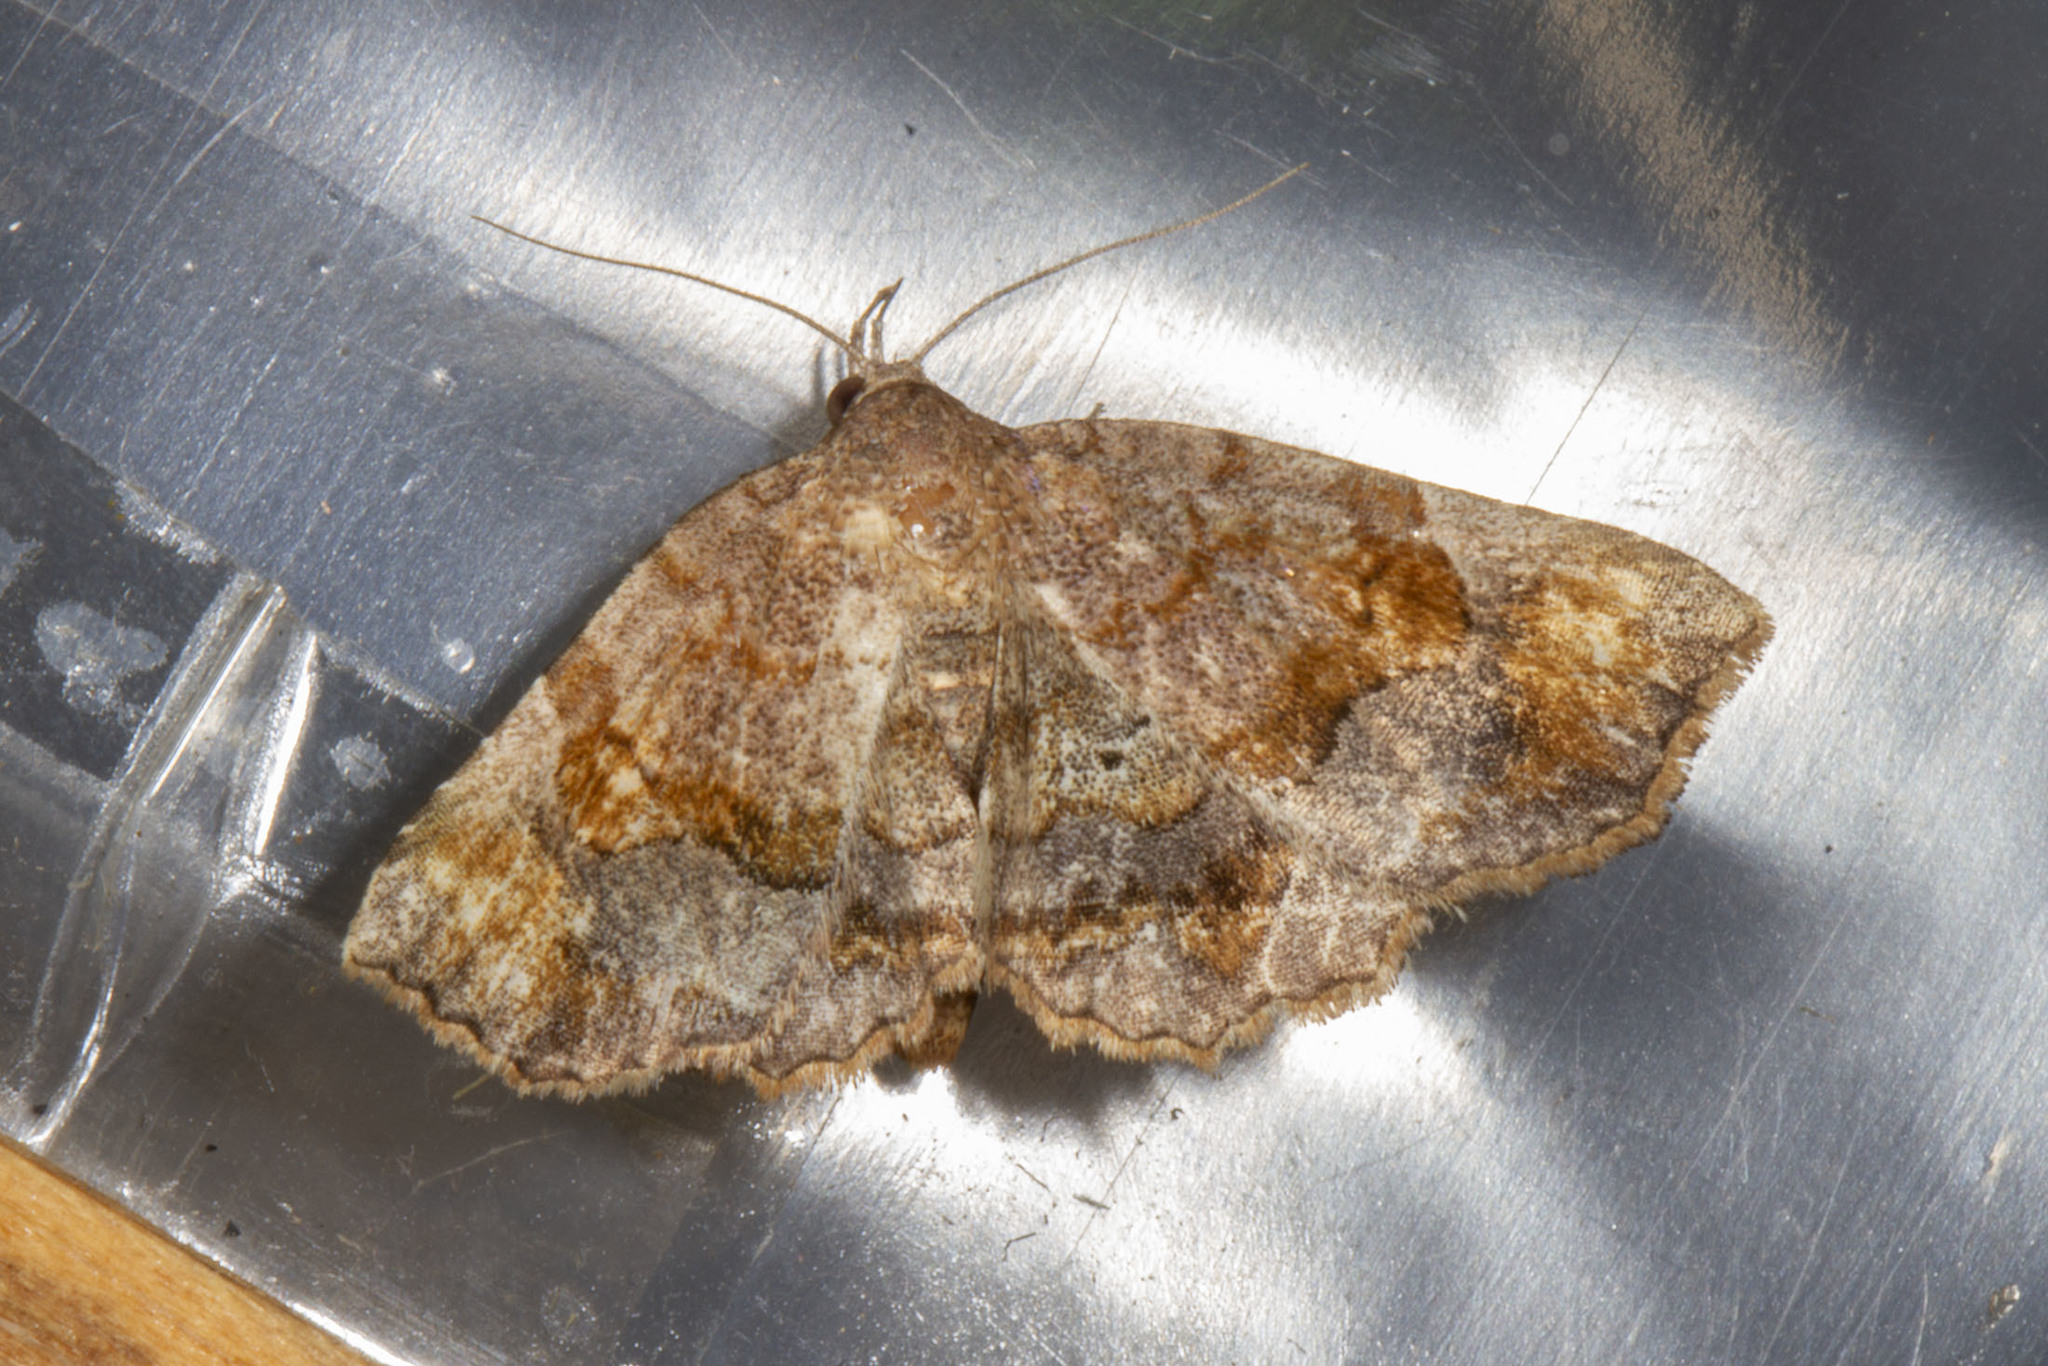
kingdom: Animalia
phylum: Arthropoda
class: Insecta
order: Lepidoptera
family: Erebidae
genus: Pangrapta
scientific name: Pangrapta decoralis
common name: Decorated owlet
